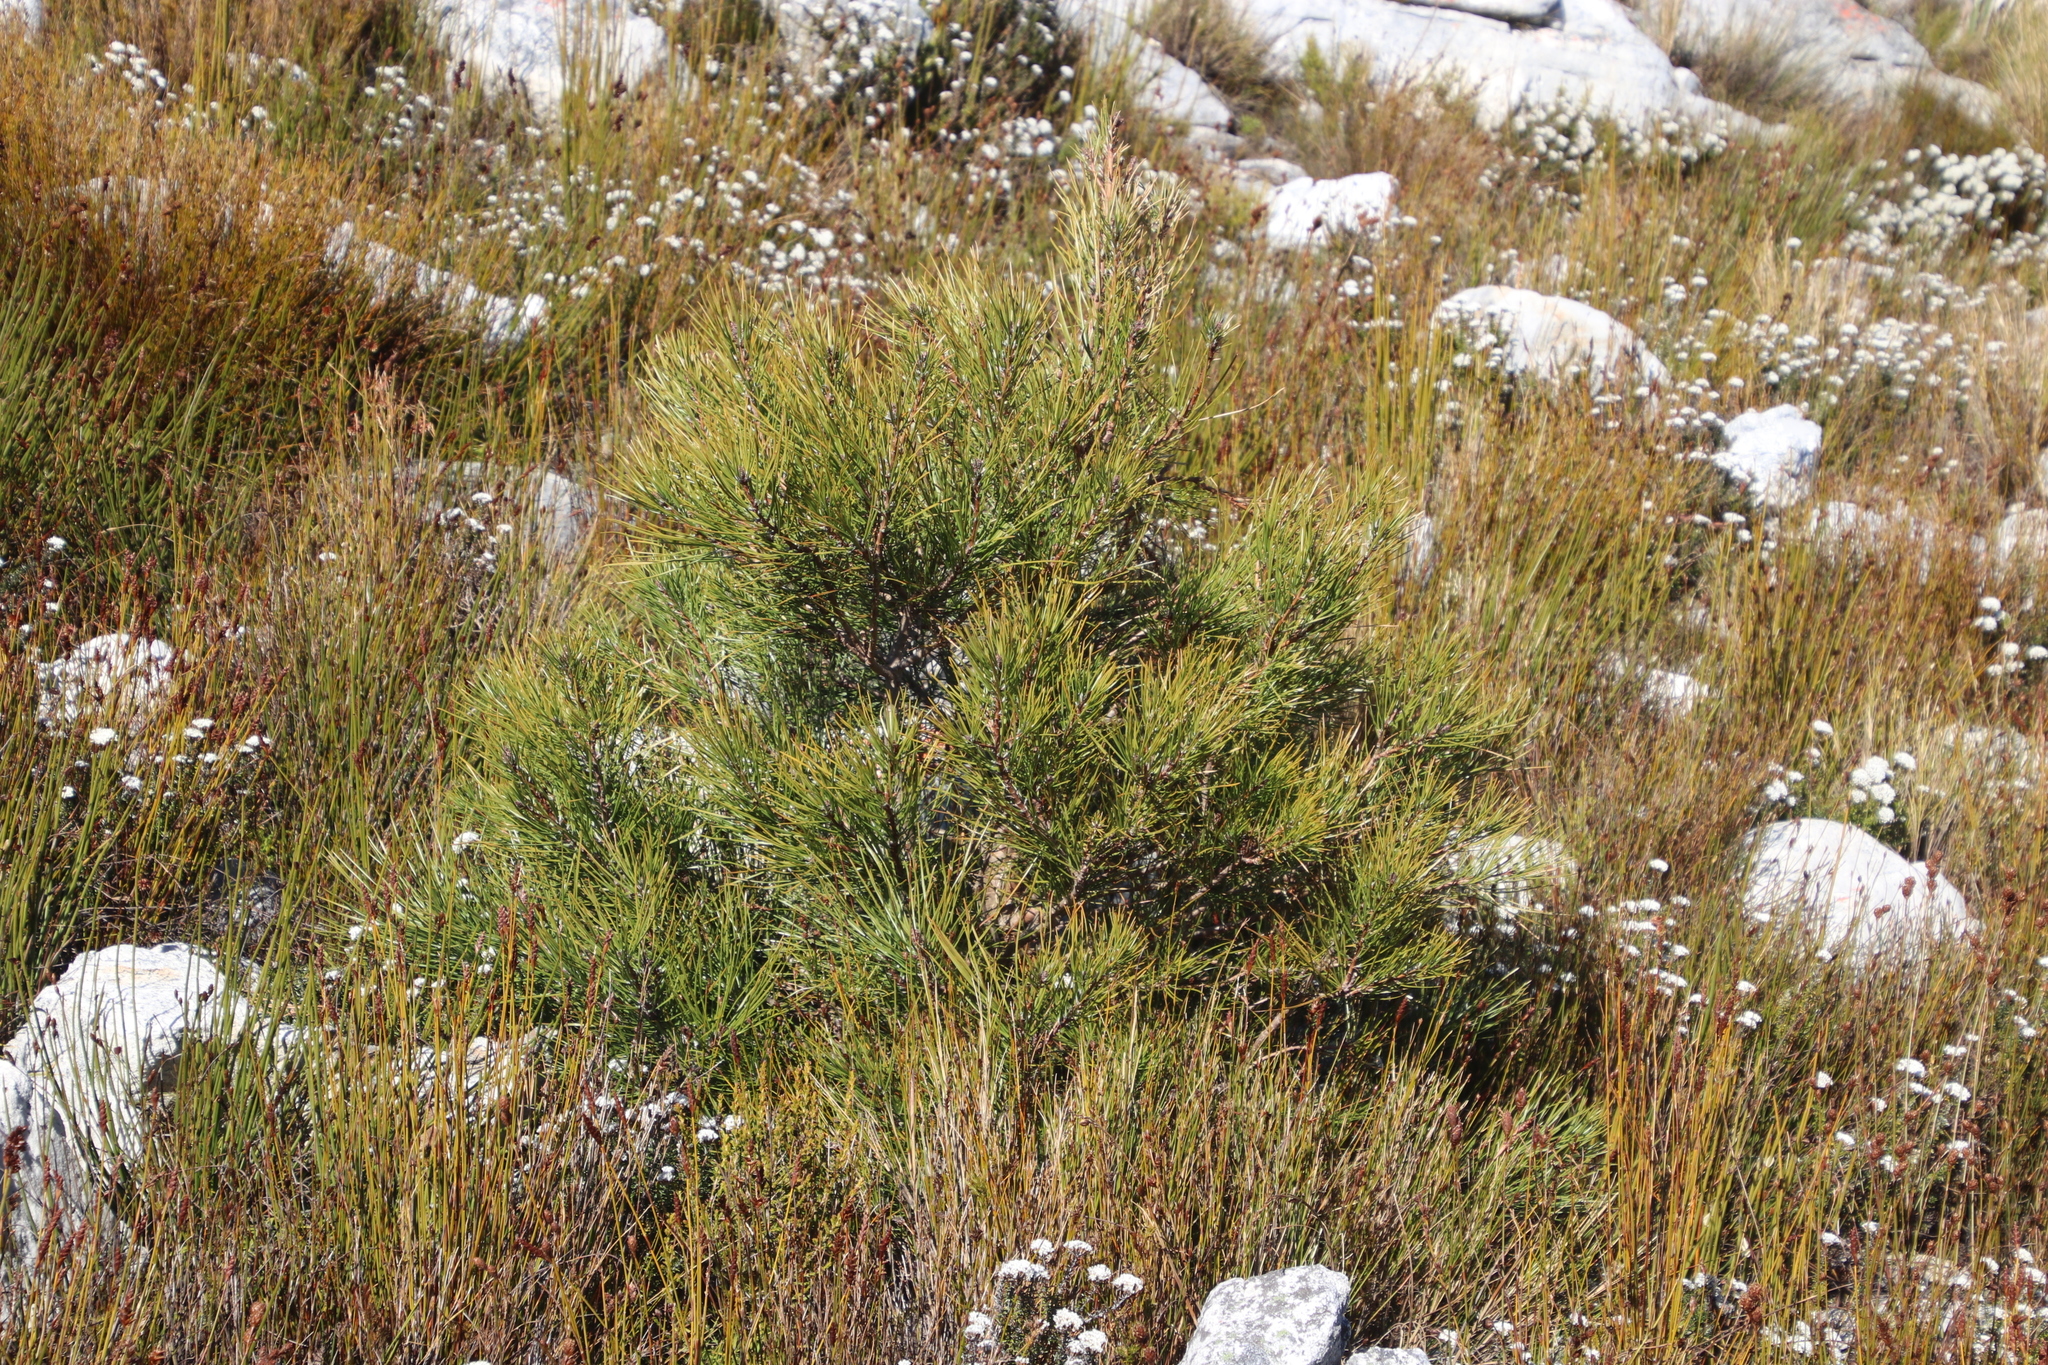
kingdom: Plantae
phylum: Tracheophyta
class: Pinopsida
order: Pinales
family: Pinaceae
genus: Pinus
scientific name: Pinus pinaster
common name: Maritime pine
